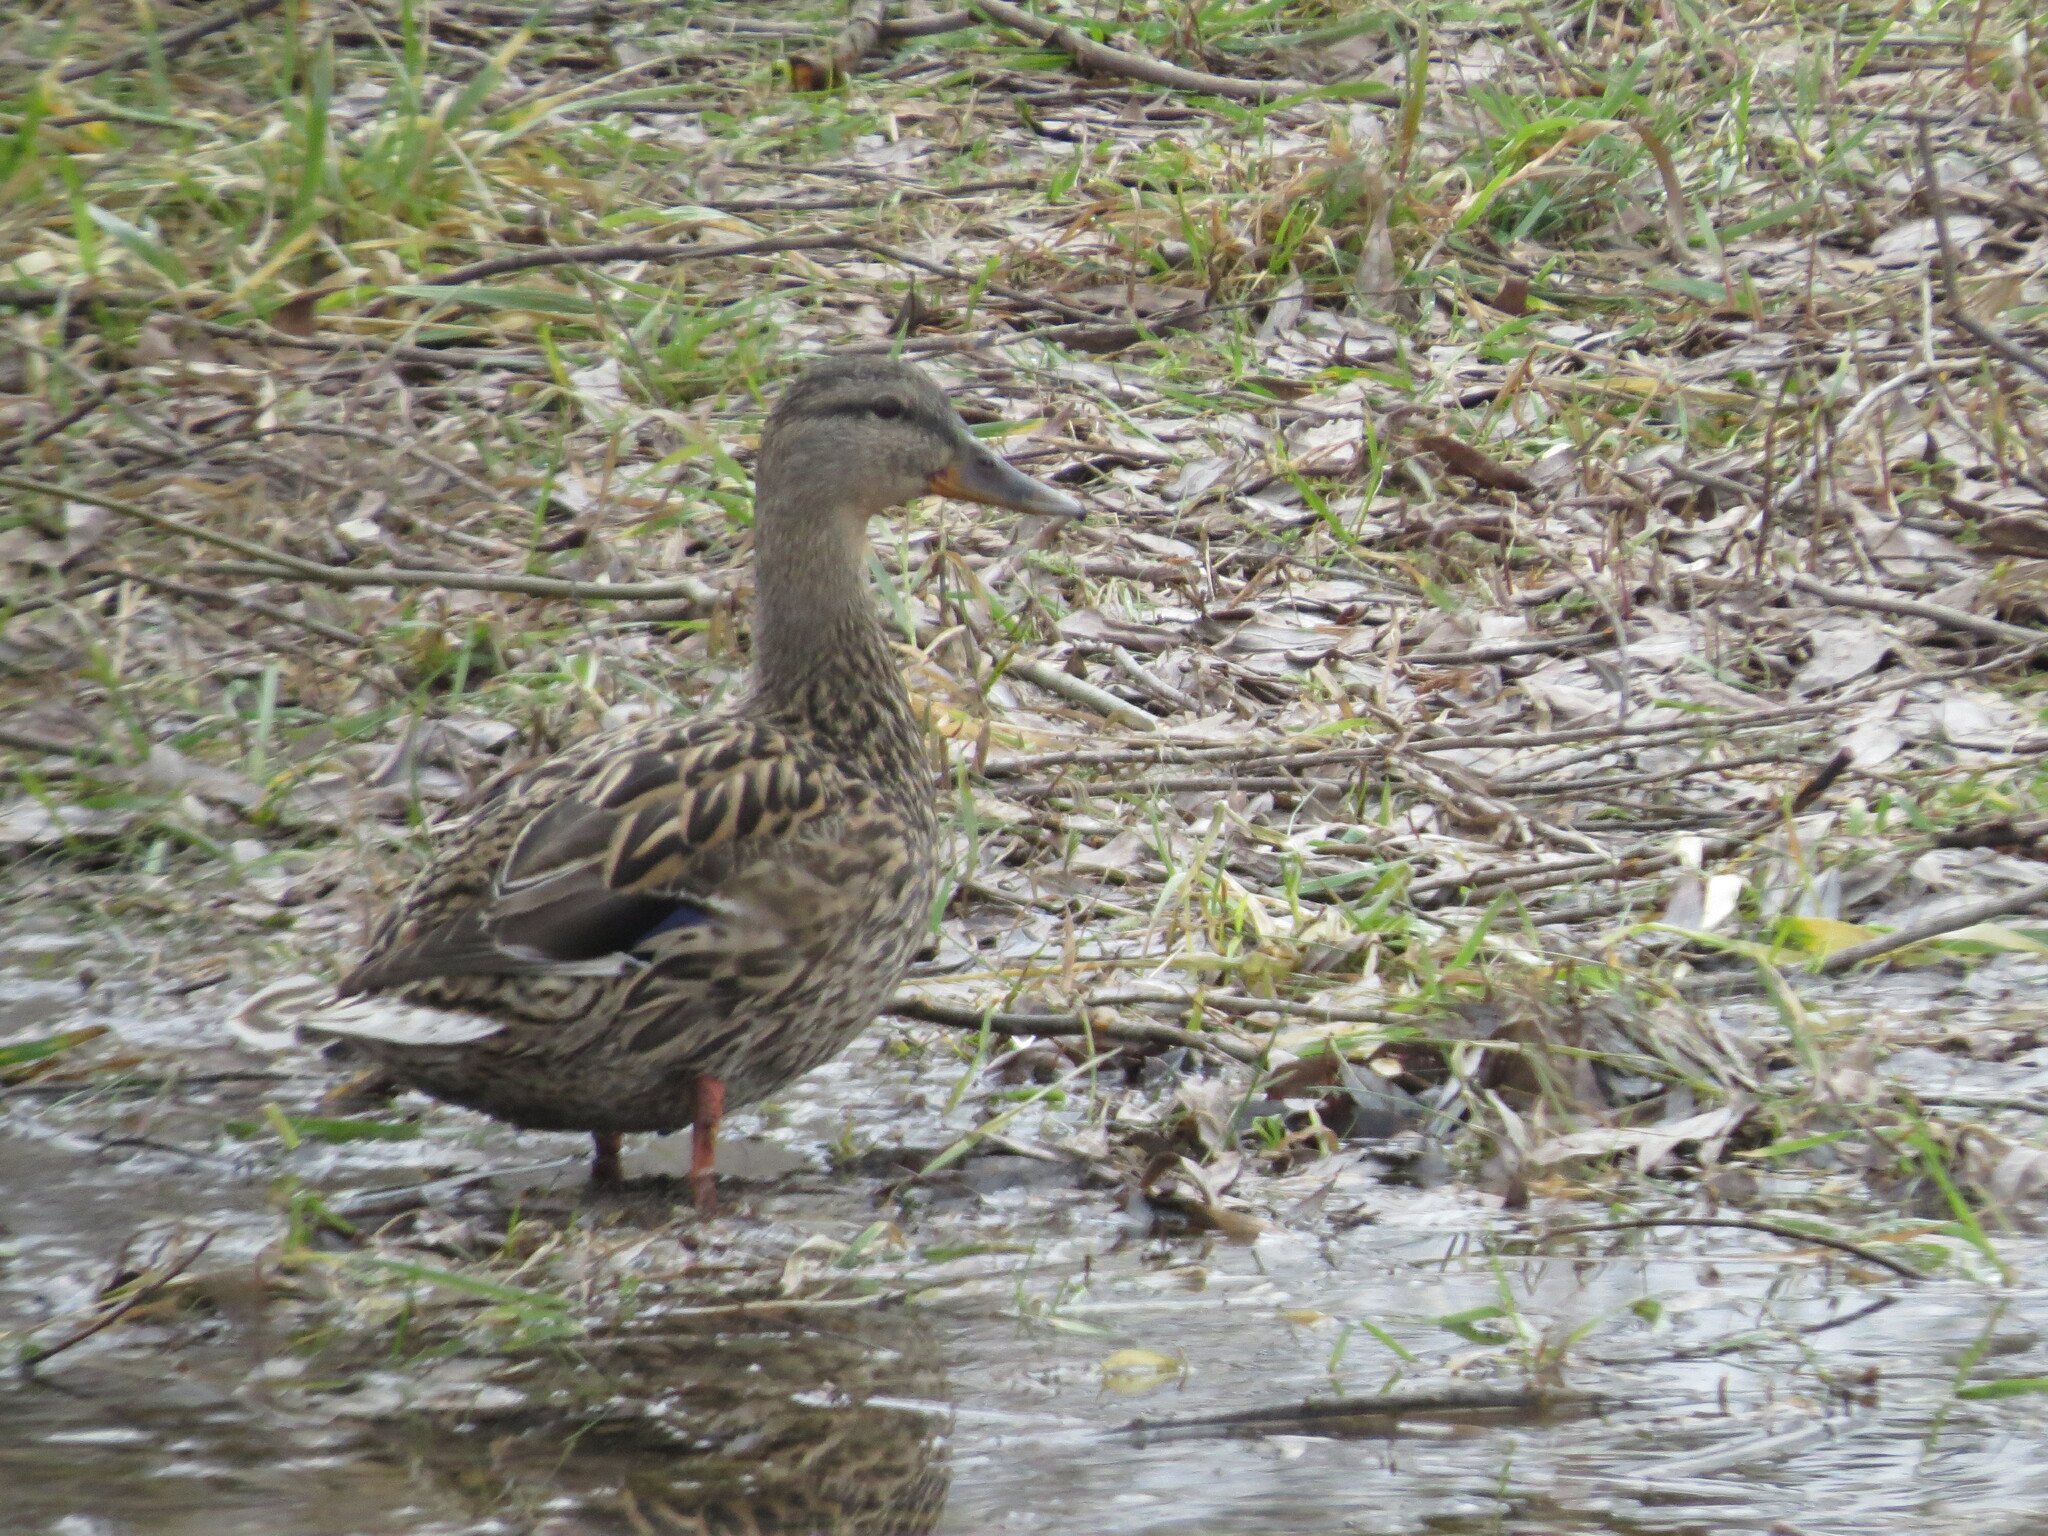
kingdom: Animalia
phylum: Chordata
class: Aves
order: Anseriformes
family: Anatidae
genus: Anas
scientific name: Anas platyrhynchos
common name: Mallard
